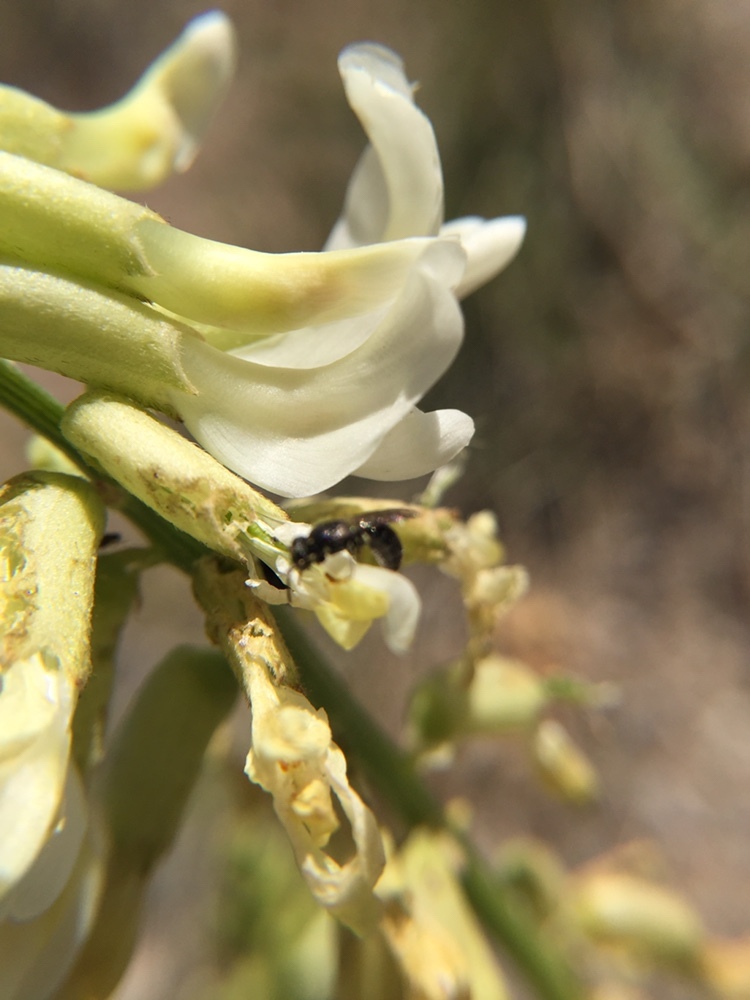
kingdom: Animalia
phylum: Arthropoda
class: Insecta
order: Hymenoptera
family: Colletidae
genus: Hylaeus
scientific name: Hylaeus
